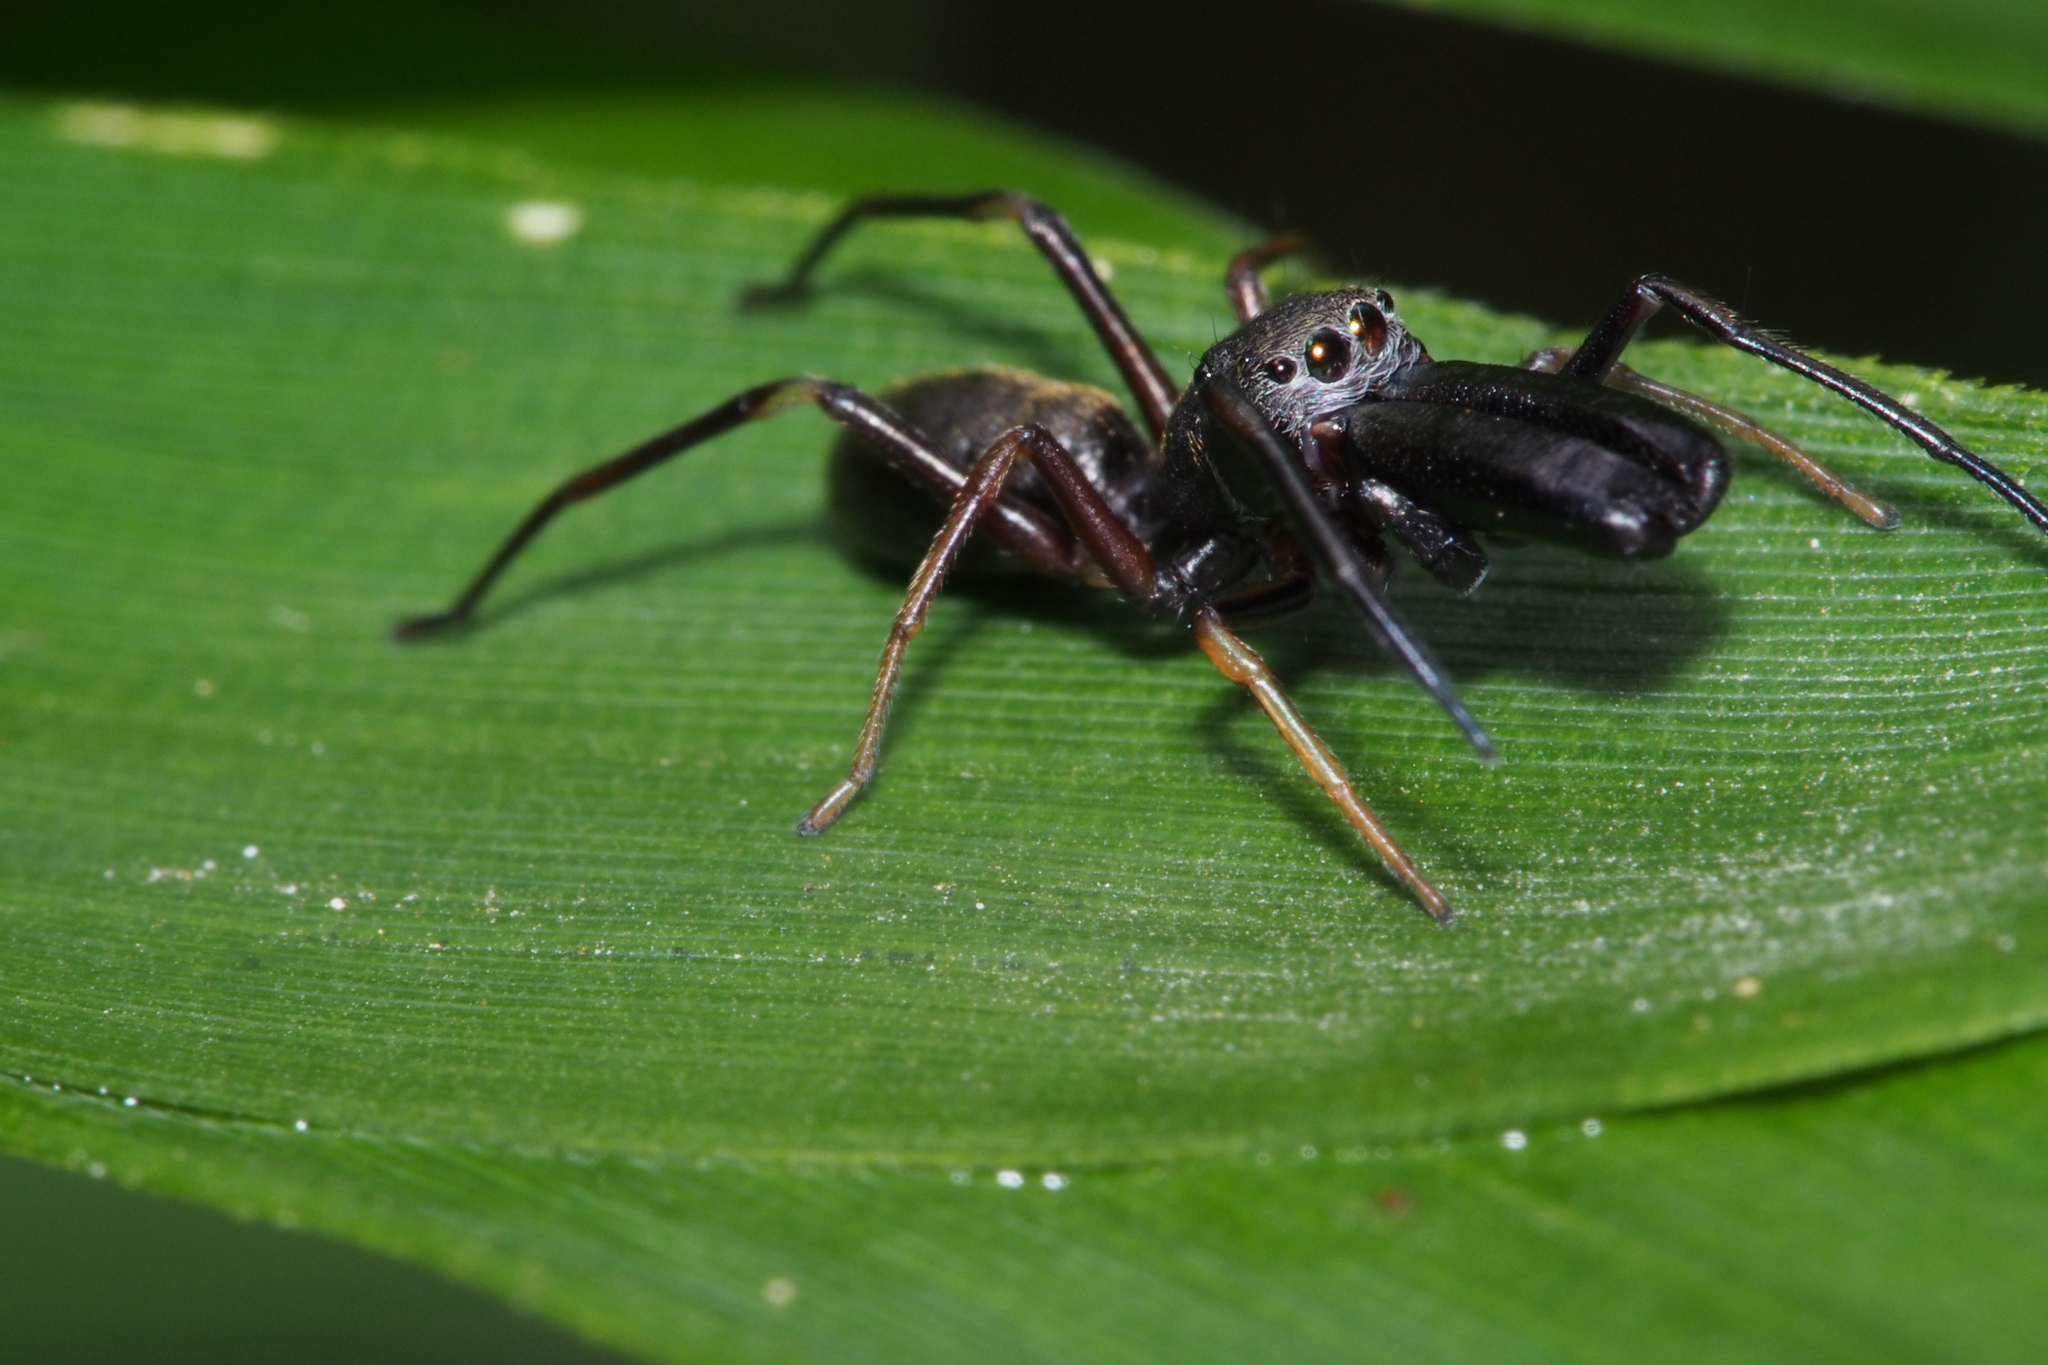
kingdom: Animalia
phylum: Arthropoda
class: Arachnida
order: Araneae
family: Salticidae
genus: Myrmarachne
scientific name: Myrmarachne japonica
